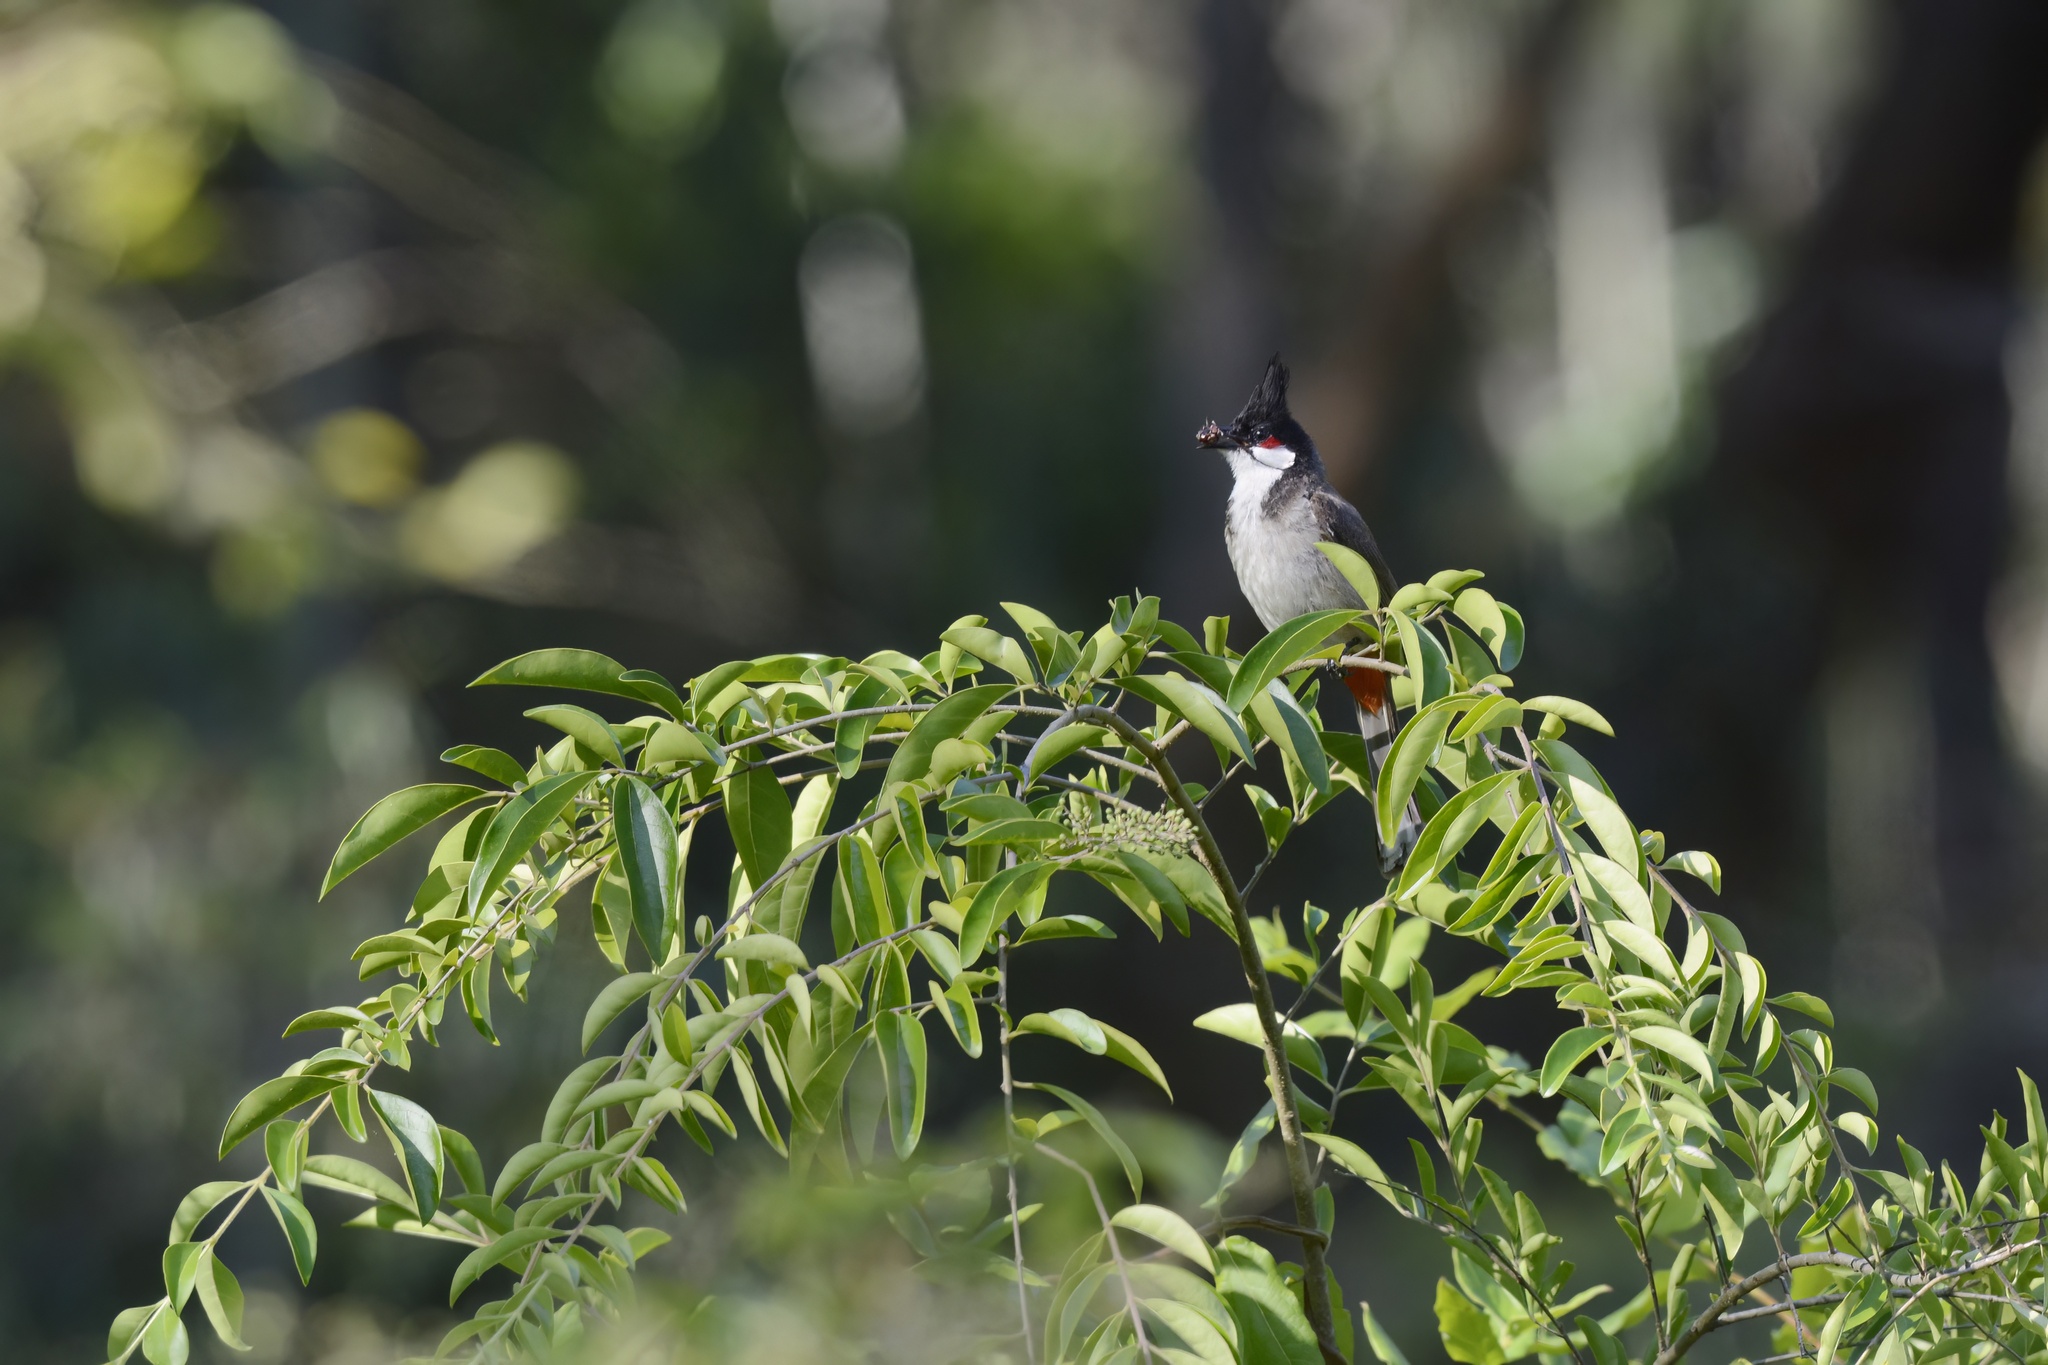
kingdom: Animalia
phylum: Chordata
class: Aves
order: Passeriformes
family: Pycnonotidae
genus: Pycnonotus
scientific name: Pycnonotus jocosus
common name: Red-whiskered bulbul
